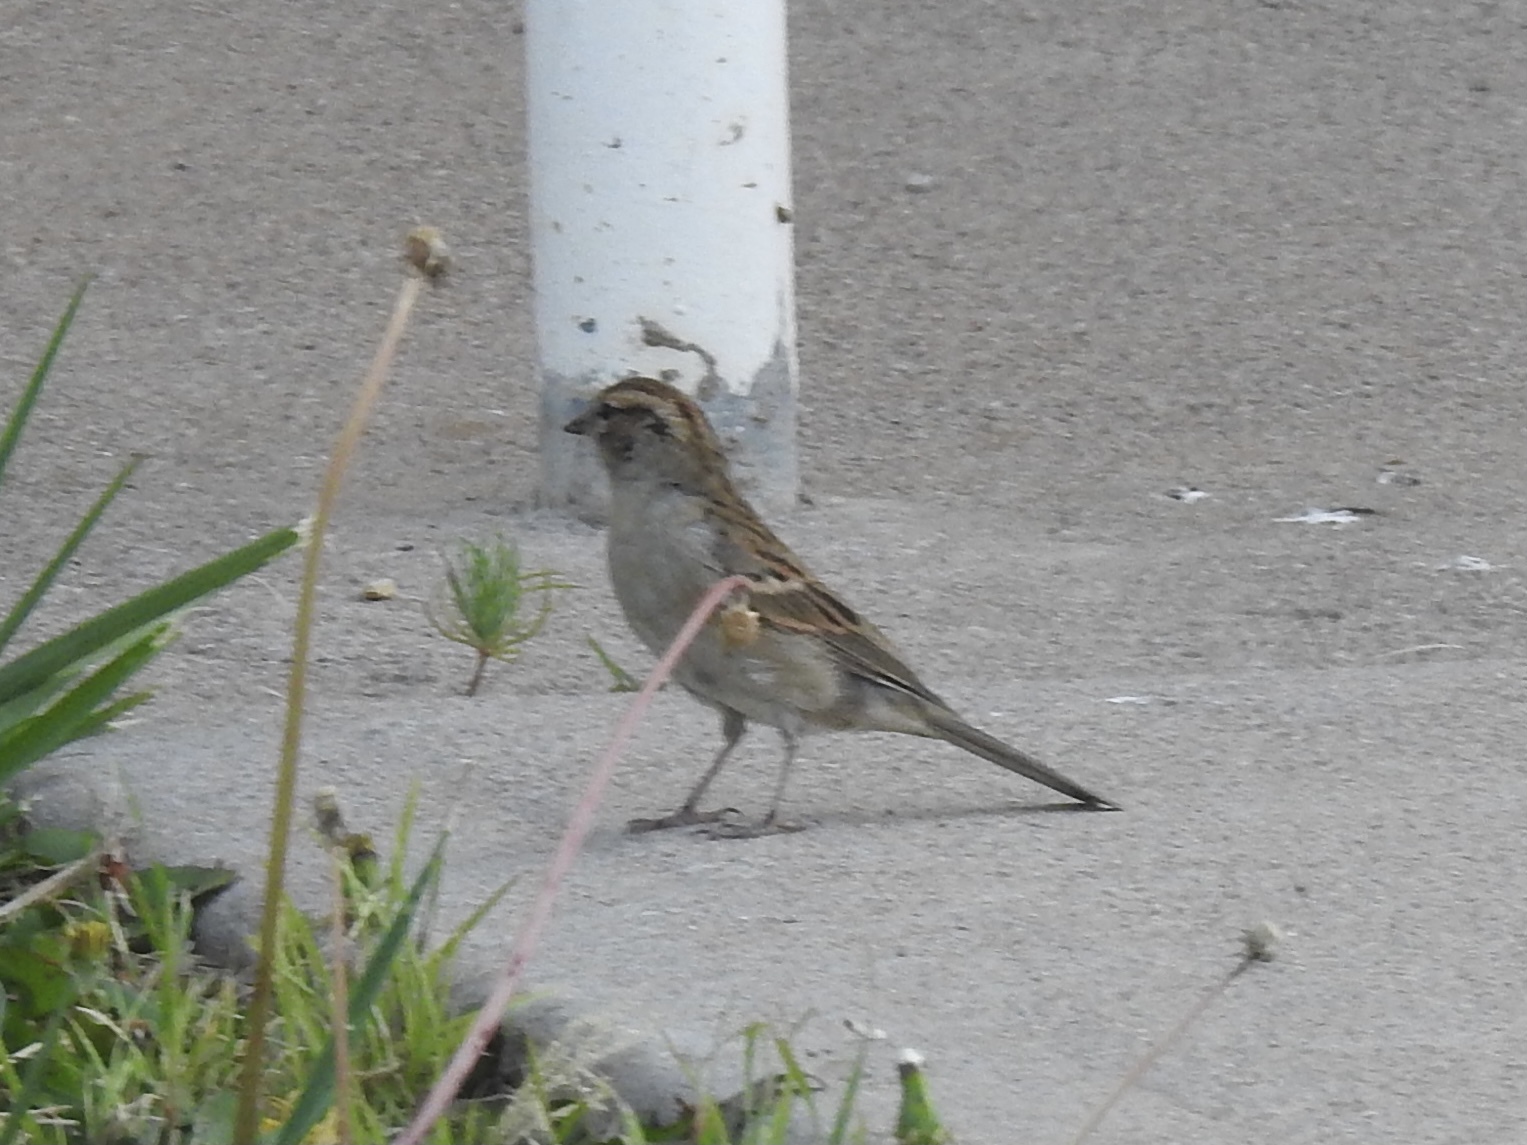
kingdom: Animalia
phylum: Chordata
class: Aves
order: Passeriformes
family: Passerellidae
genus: Spizella
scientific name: Spizella passerina
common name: Chipping sparrow
